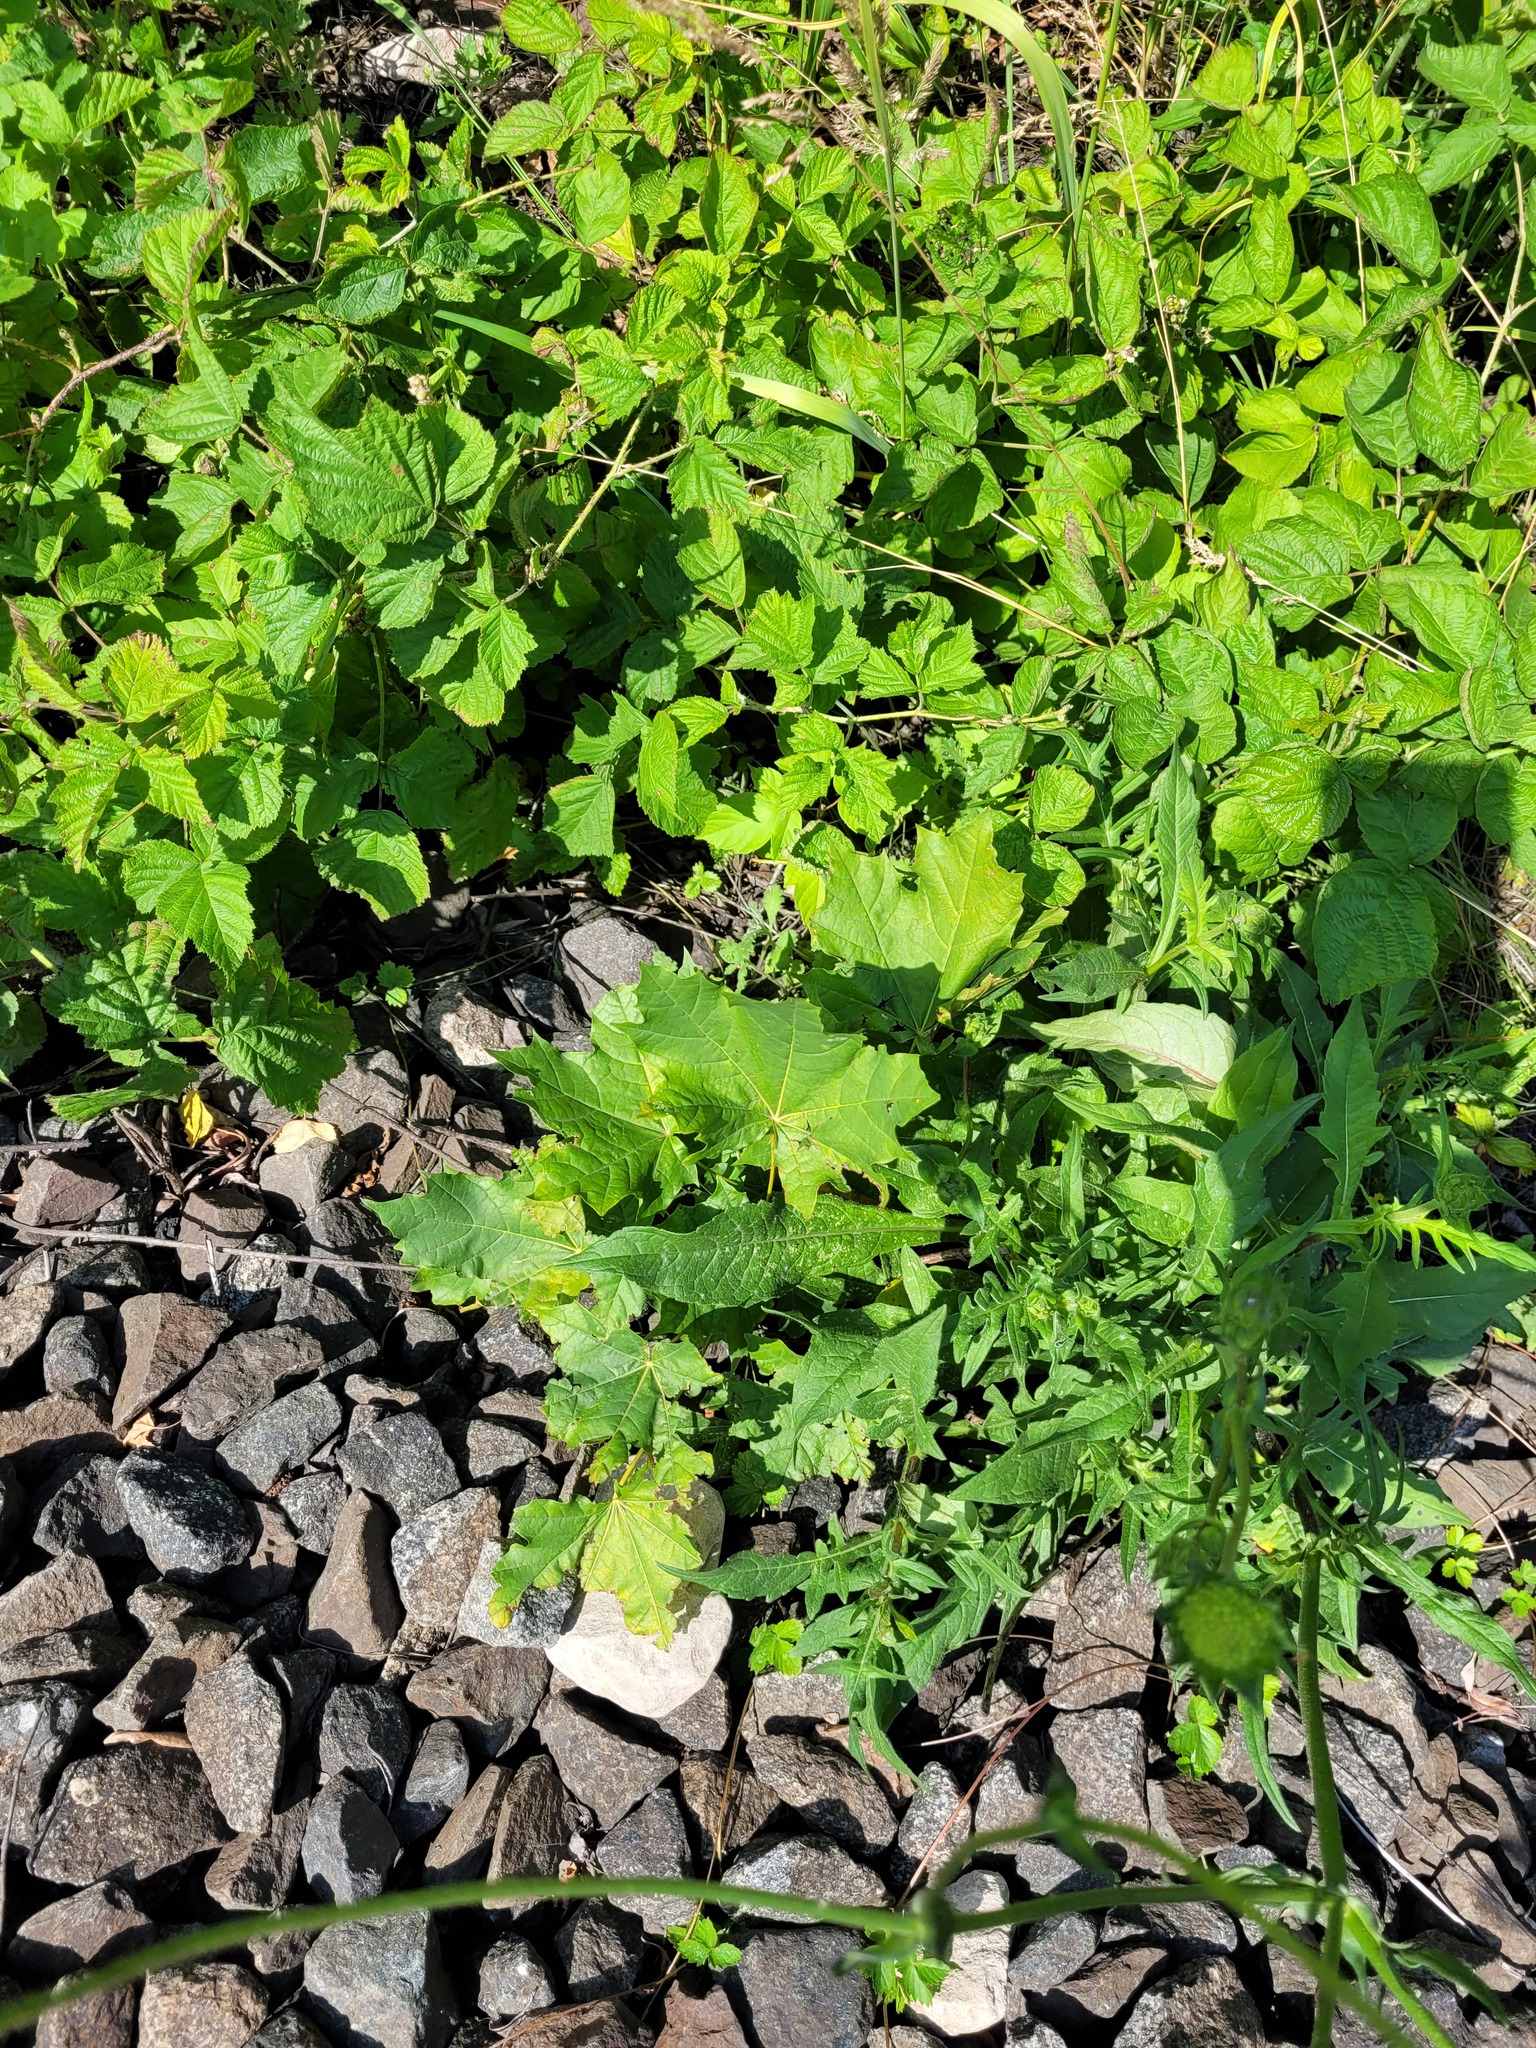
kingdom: Plantae
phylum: Tracheophyta
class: Magnoliopsida
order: Sapindales
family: Sapindaceae
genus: Acer
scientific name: Acer platanoides
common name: Norway maple
